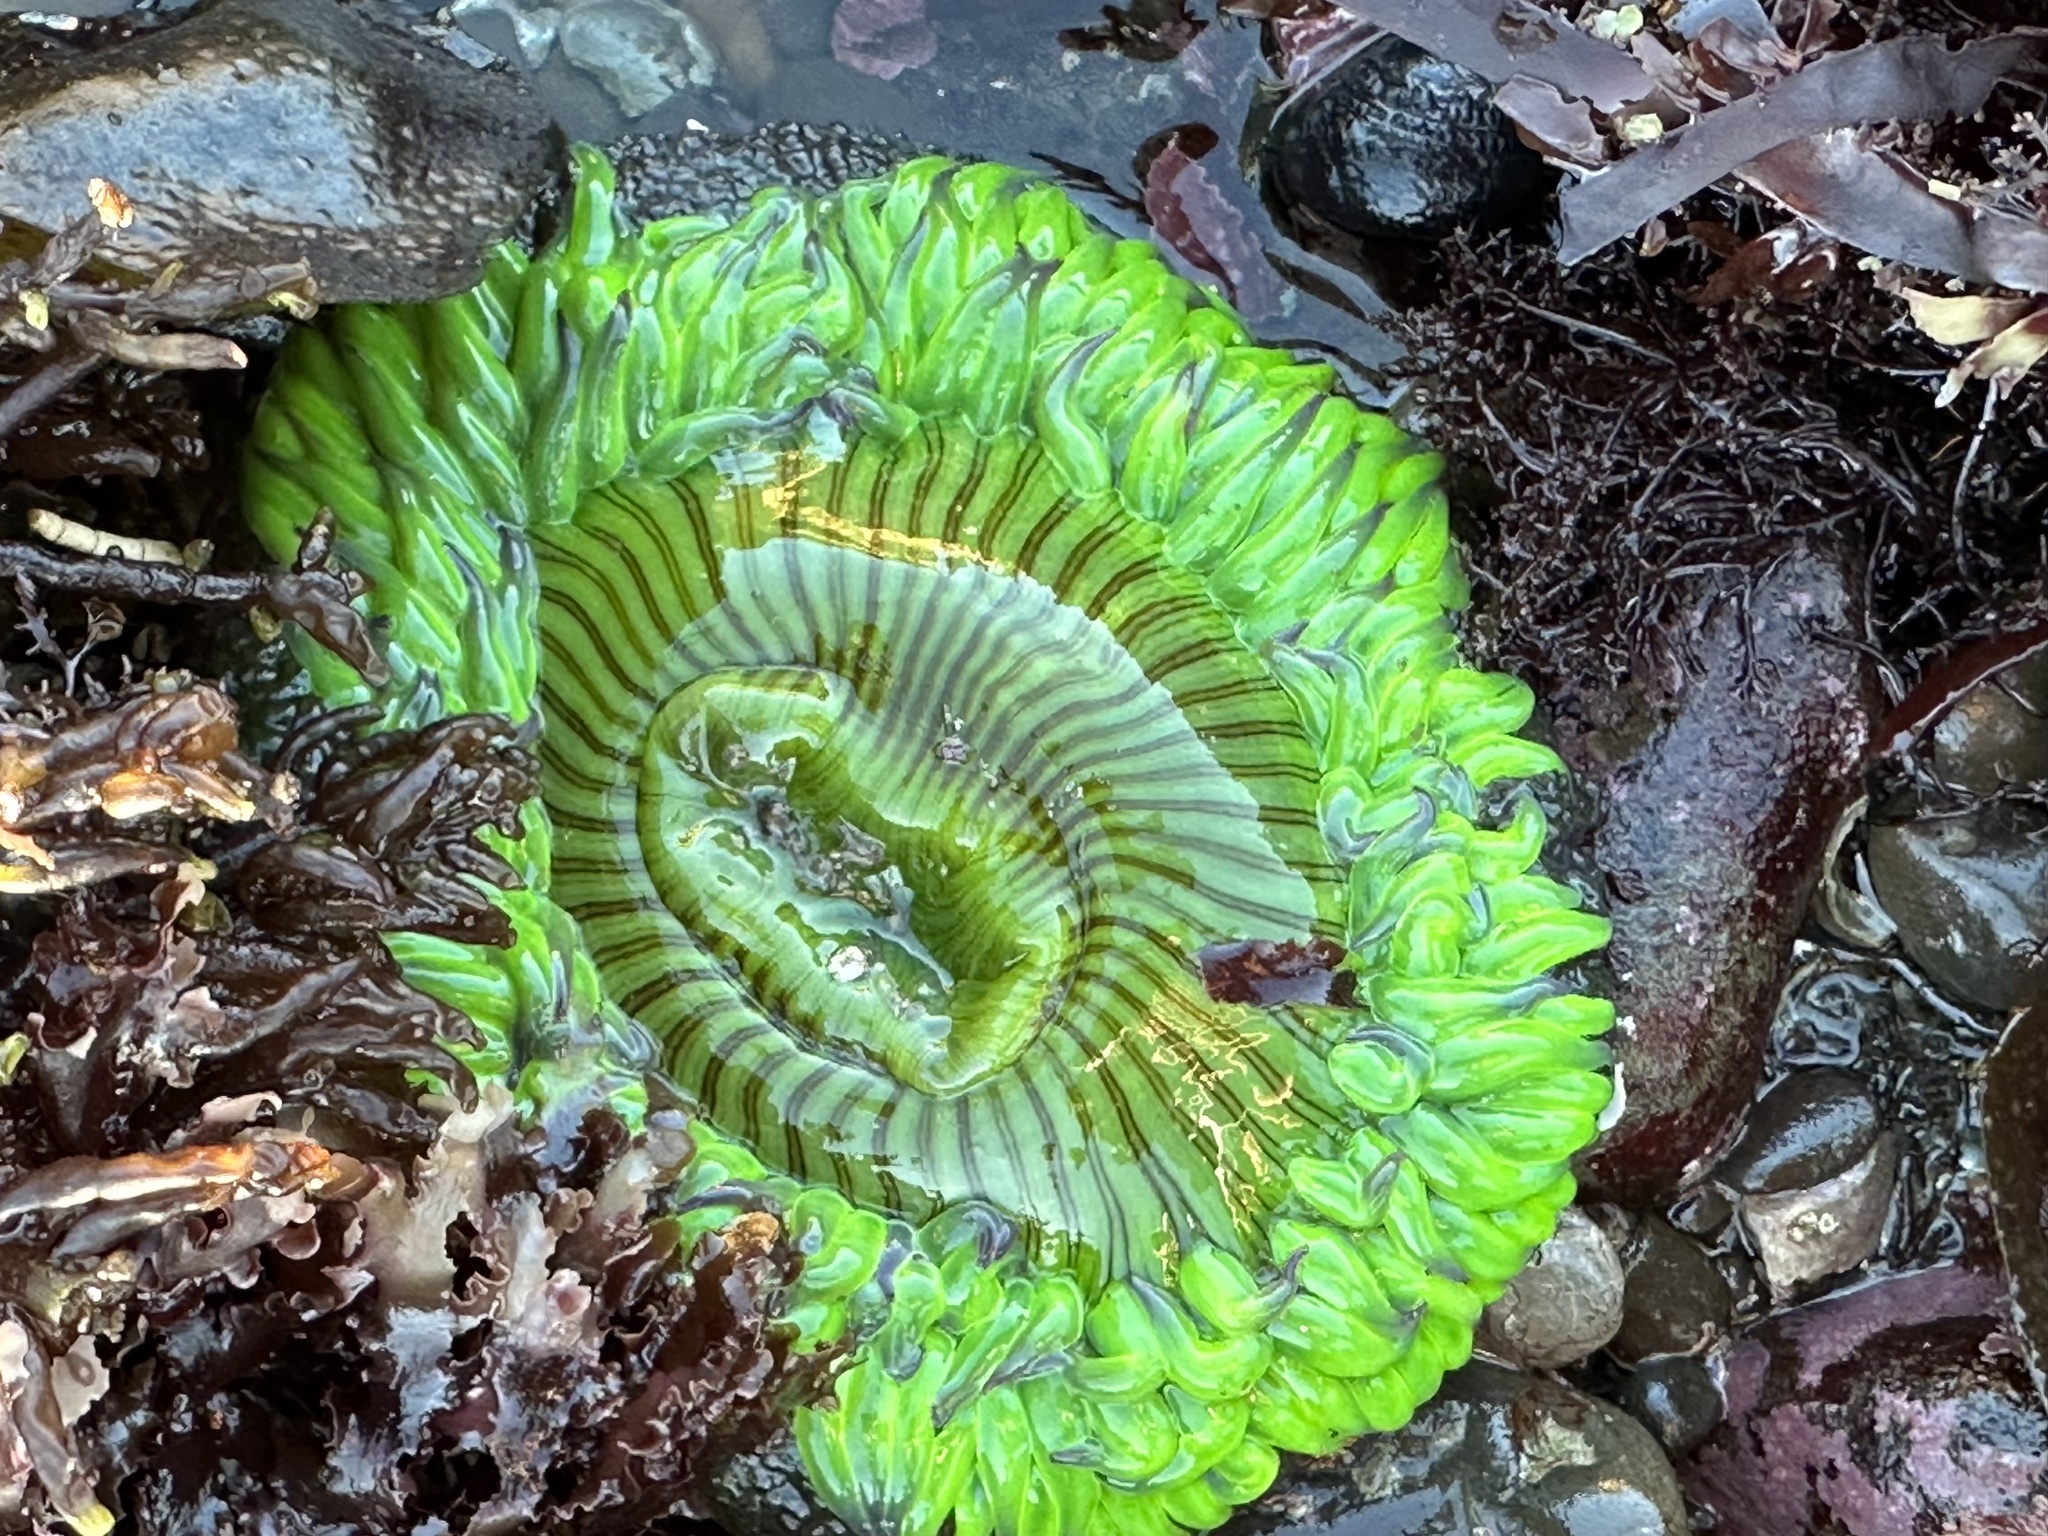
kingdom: Animalia
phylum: Cnidaria
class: Anthozoa
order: Actiniaria
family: Actiniidae
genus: Anthopleura
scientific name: Anthopleura sola
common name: Sun anemone
